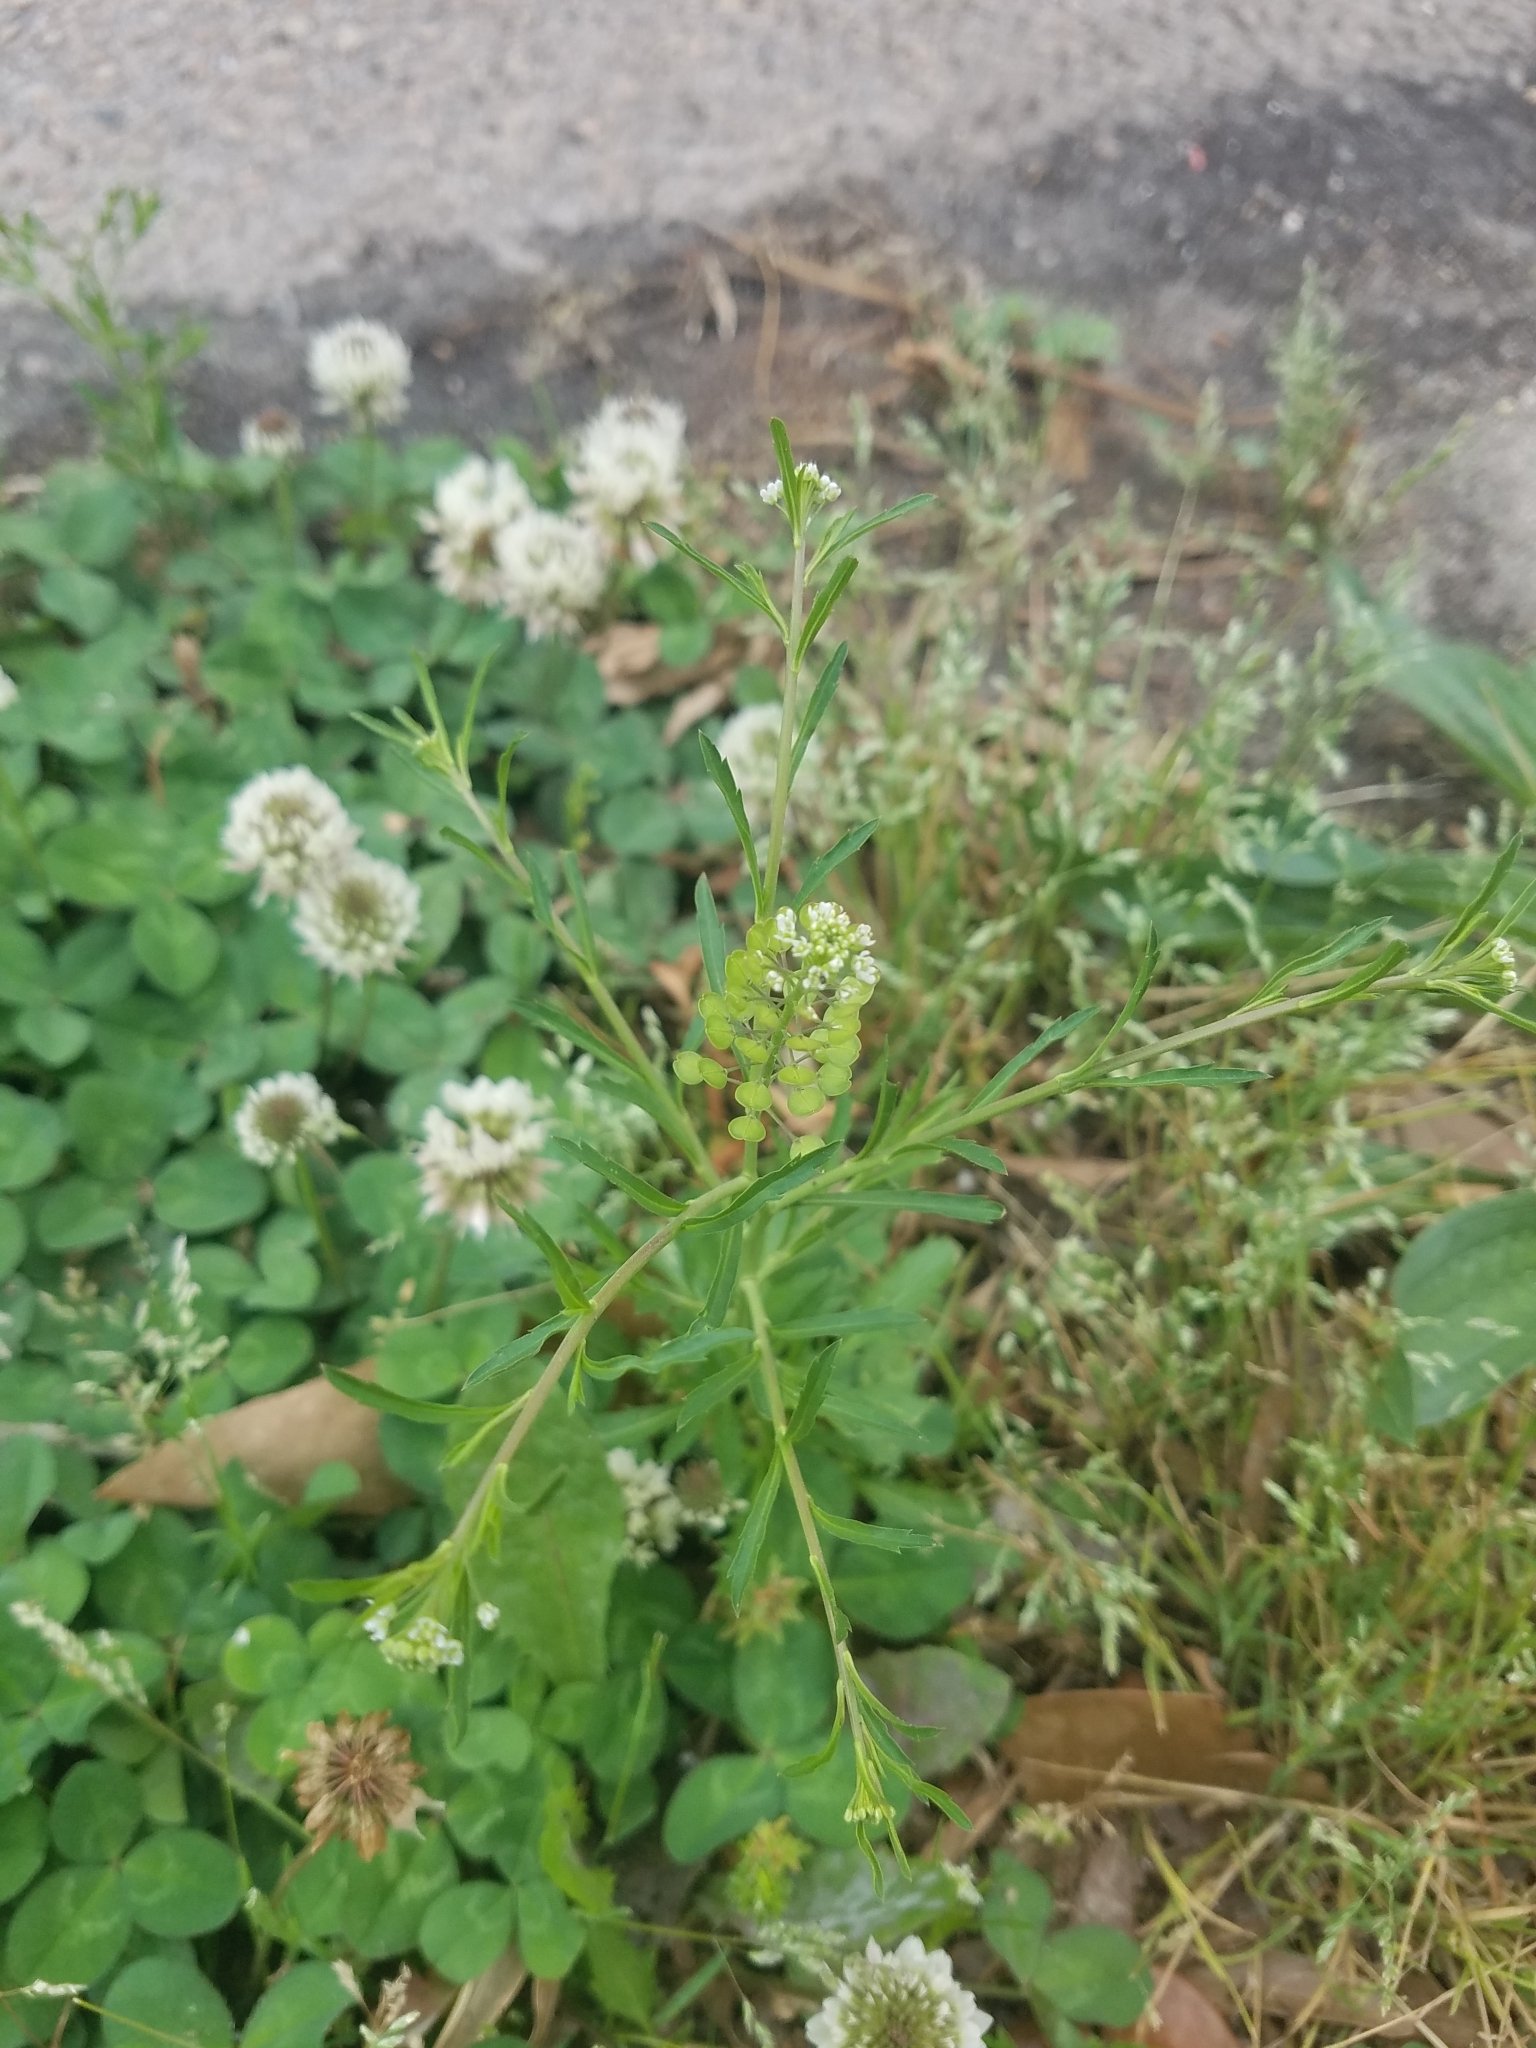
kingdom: Plantae
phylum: Tracheophyta
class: Magnoliopsida
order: Brassicales
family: Brassicaceae
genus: Lepidium
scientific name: Lepidium virginicum
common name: Least pepperwort
